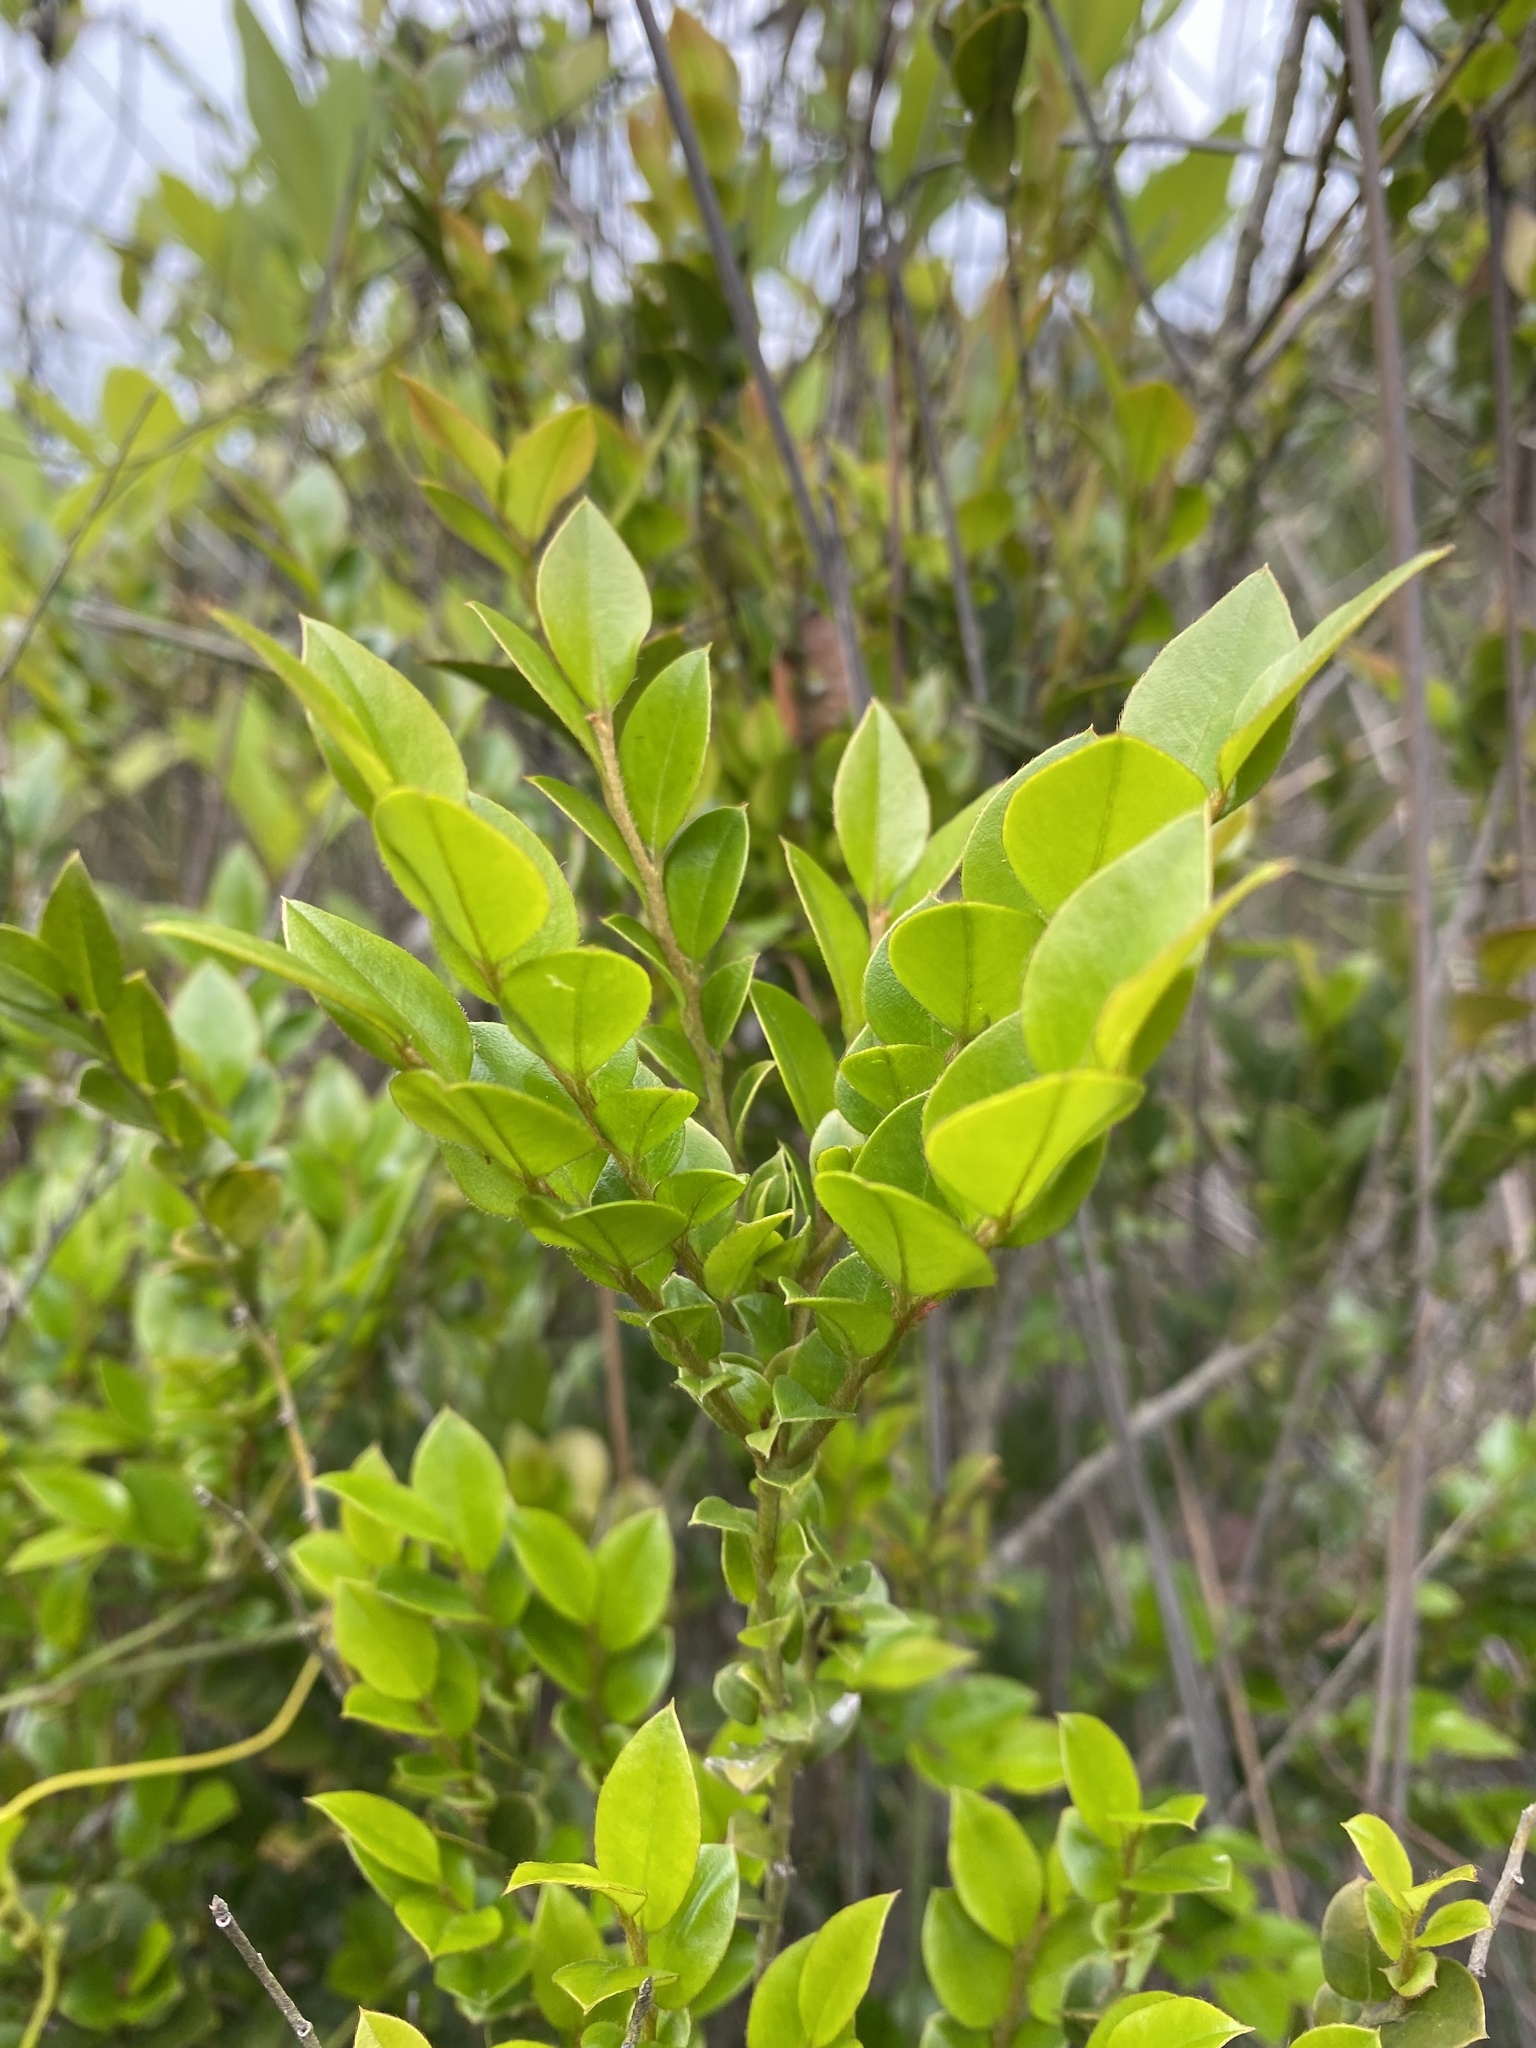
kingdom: Plantae
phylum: Tracheophyta
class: Magnoliopsida
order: Ericales
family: Ebenaceae
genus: Diospyros
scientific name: Diospyros vaccinioides
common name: Small persimmon
